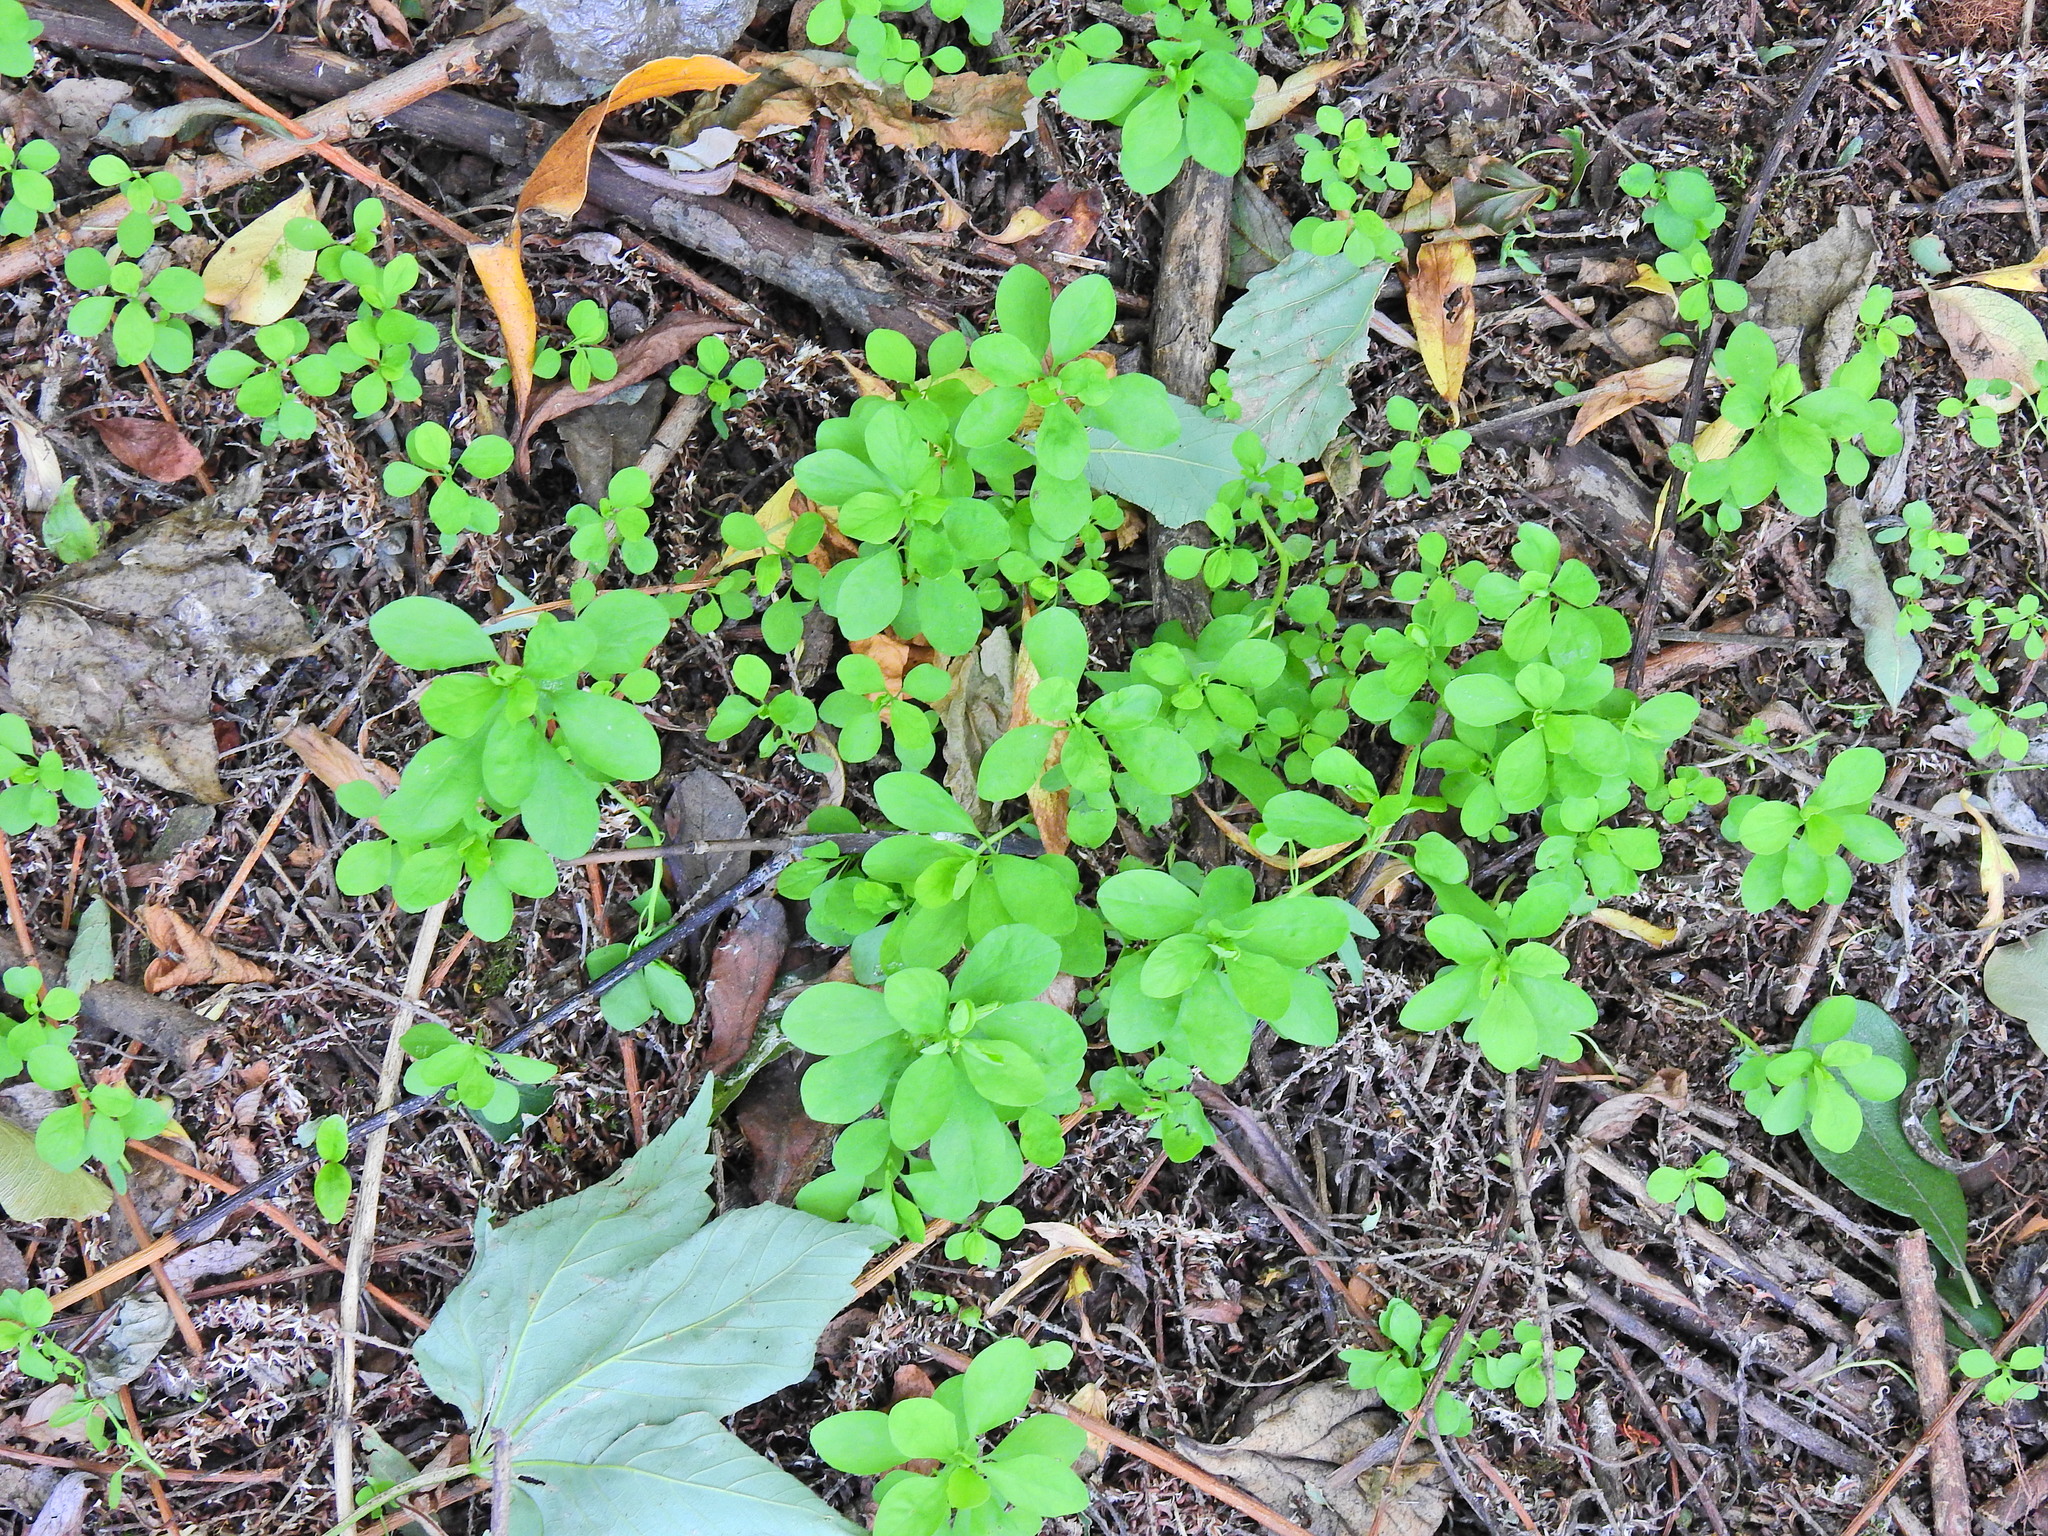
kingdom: Plantae
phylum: Tracheophyta
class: Magnoliopsida
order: Malpighiales
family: Euphorbiaceae
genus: Euphorbia
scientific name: Euphorbia peplus
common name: Petty spurge
